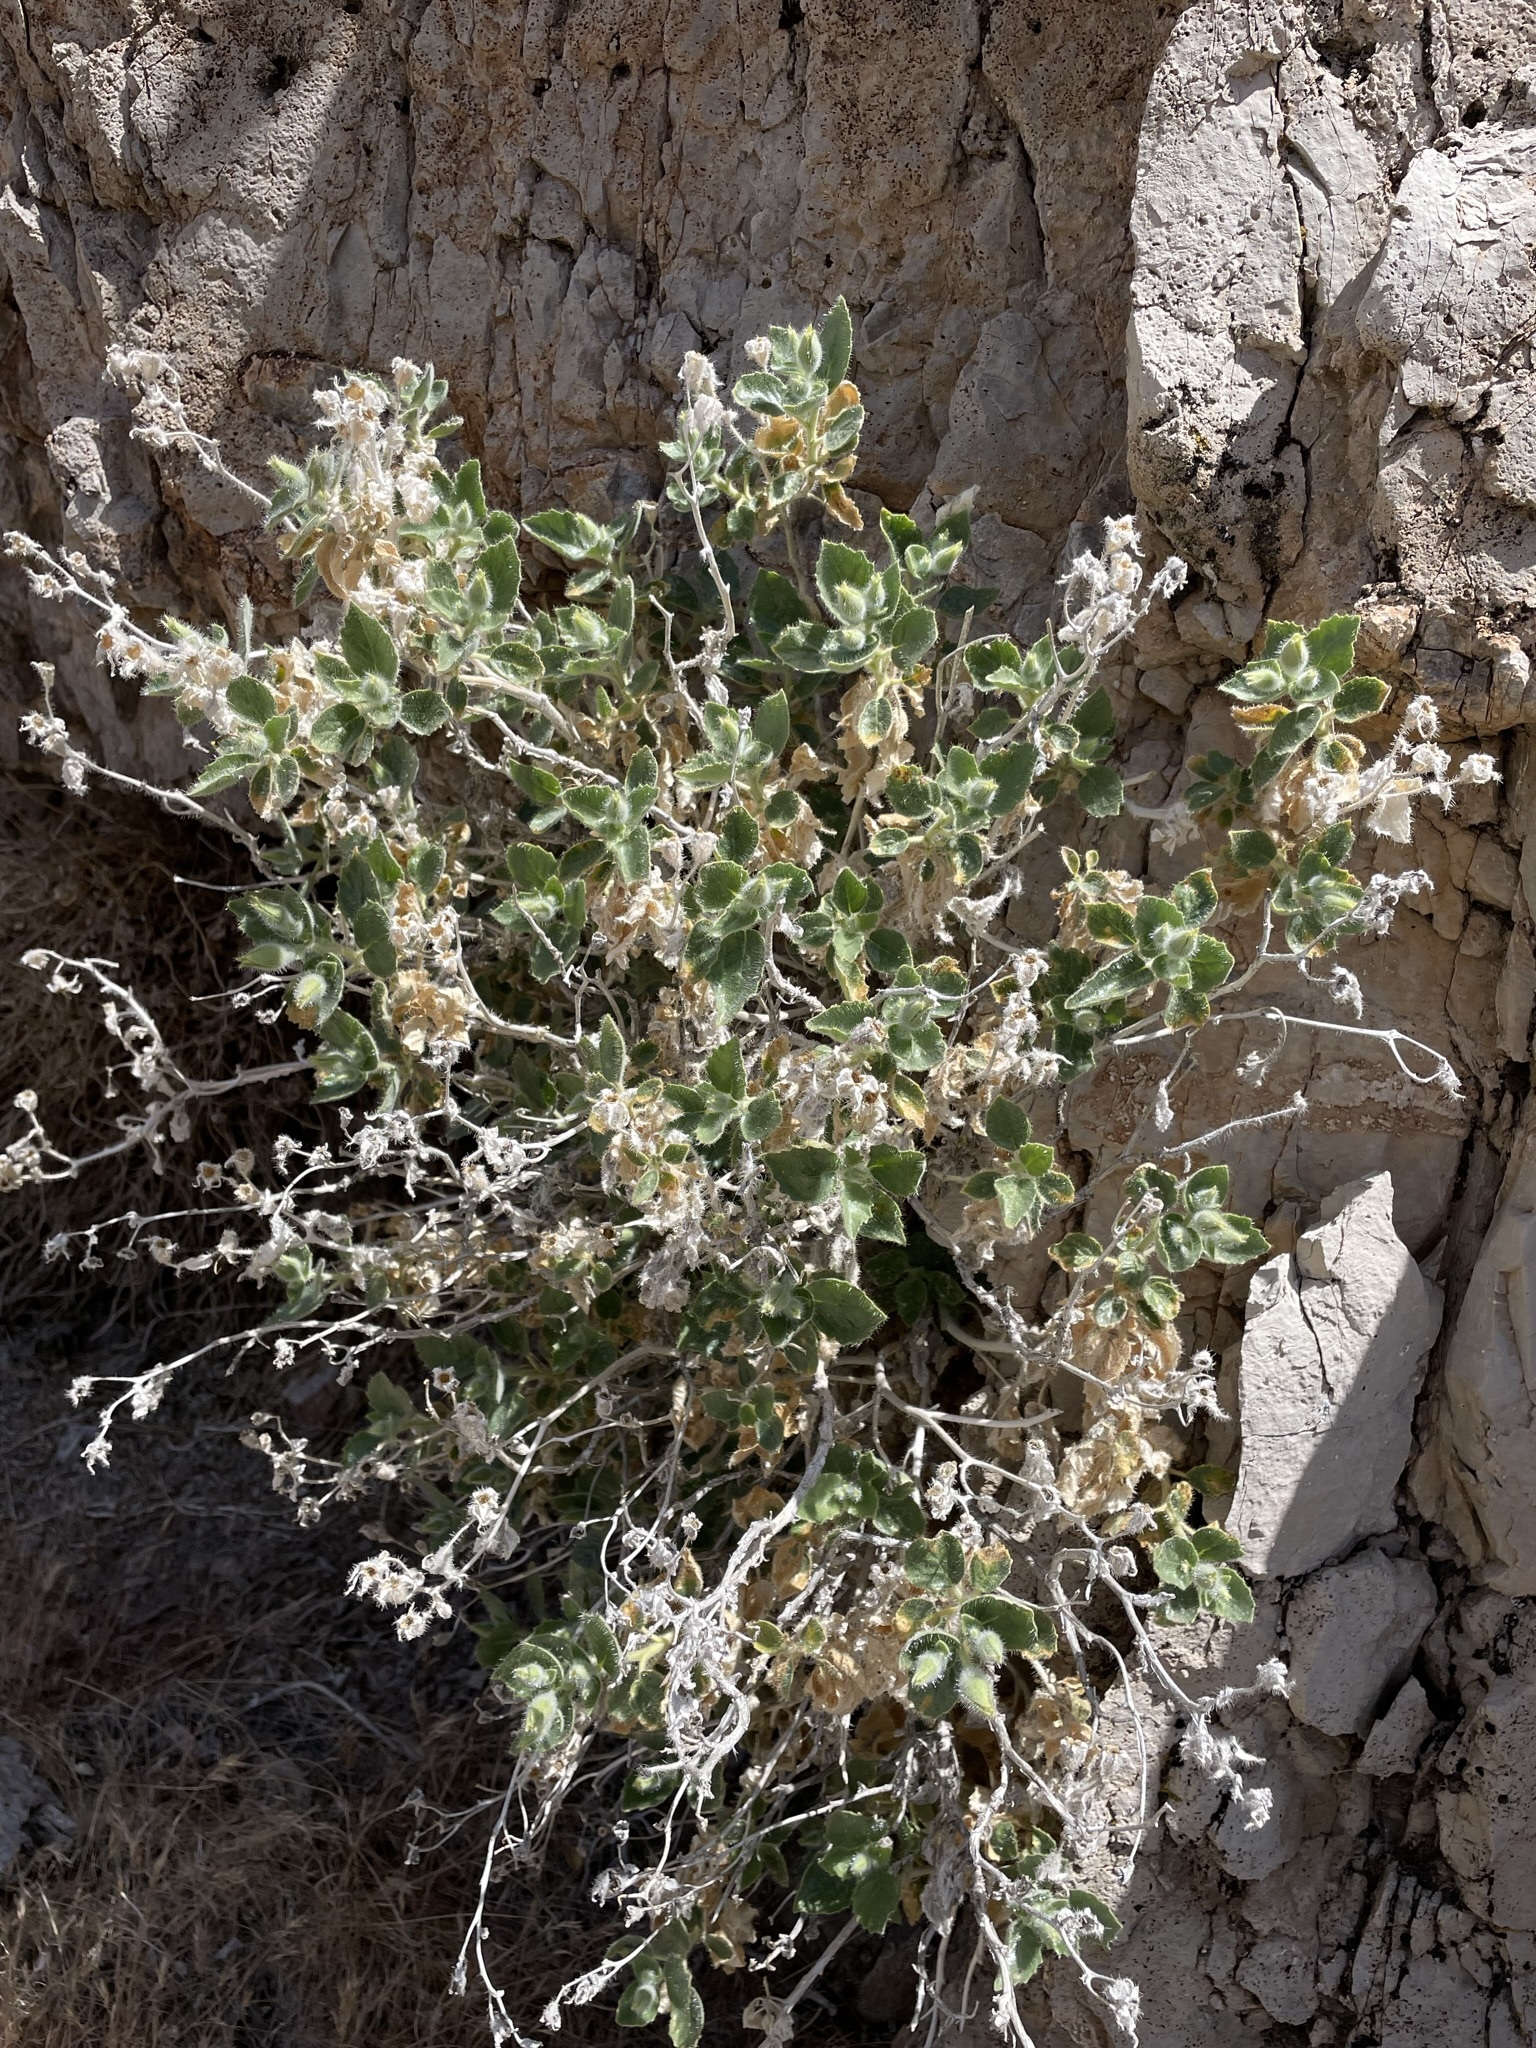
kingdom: Plantae
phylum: Tracheophyta
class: Magnoliopsida
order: Cornales
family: Loasaceae
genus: Eucnide
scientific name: Eucnide urens
